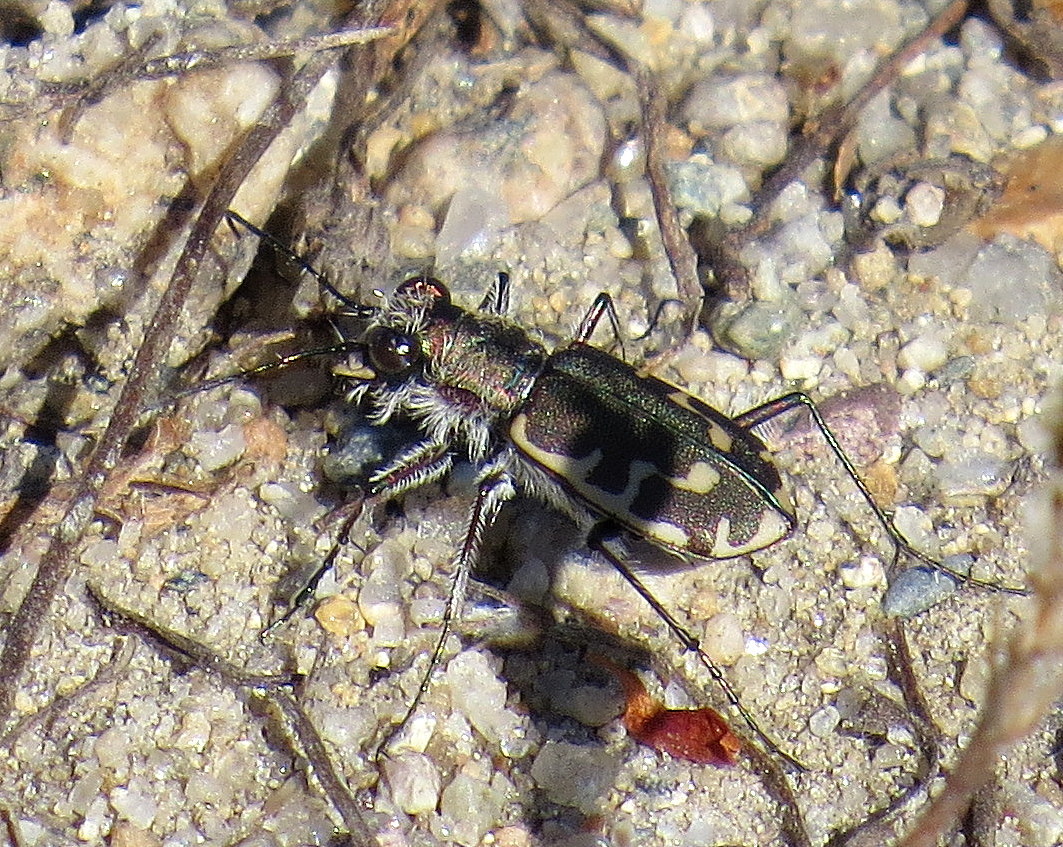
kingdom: Animalia
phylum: Arthropoda
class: Insecta
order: Coleoptera
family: Carabidae
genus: Cicindela
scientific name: Cicindela repanda
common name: Bronzed tiger beetle
